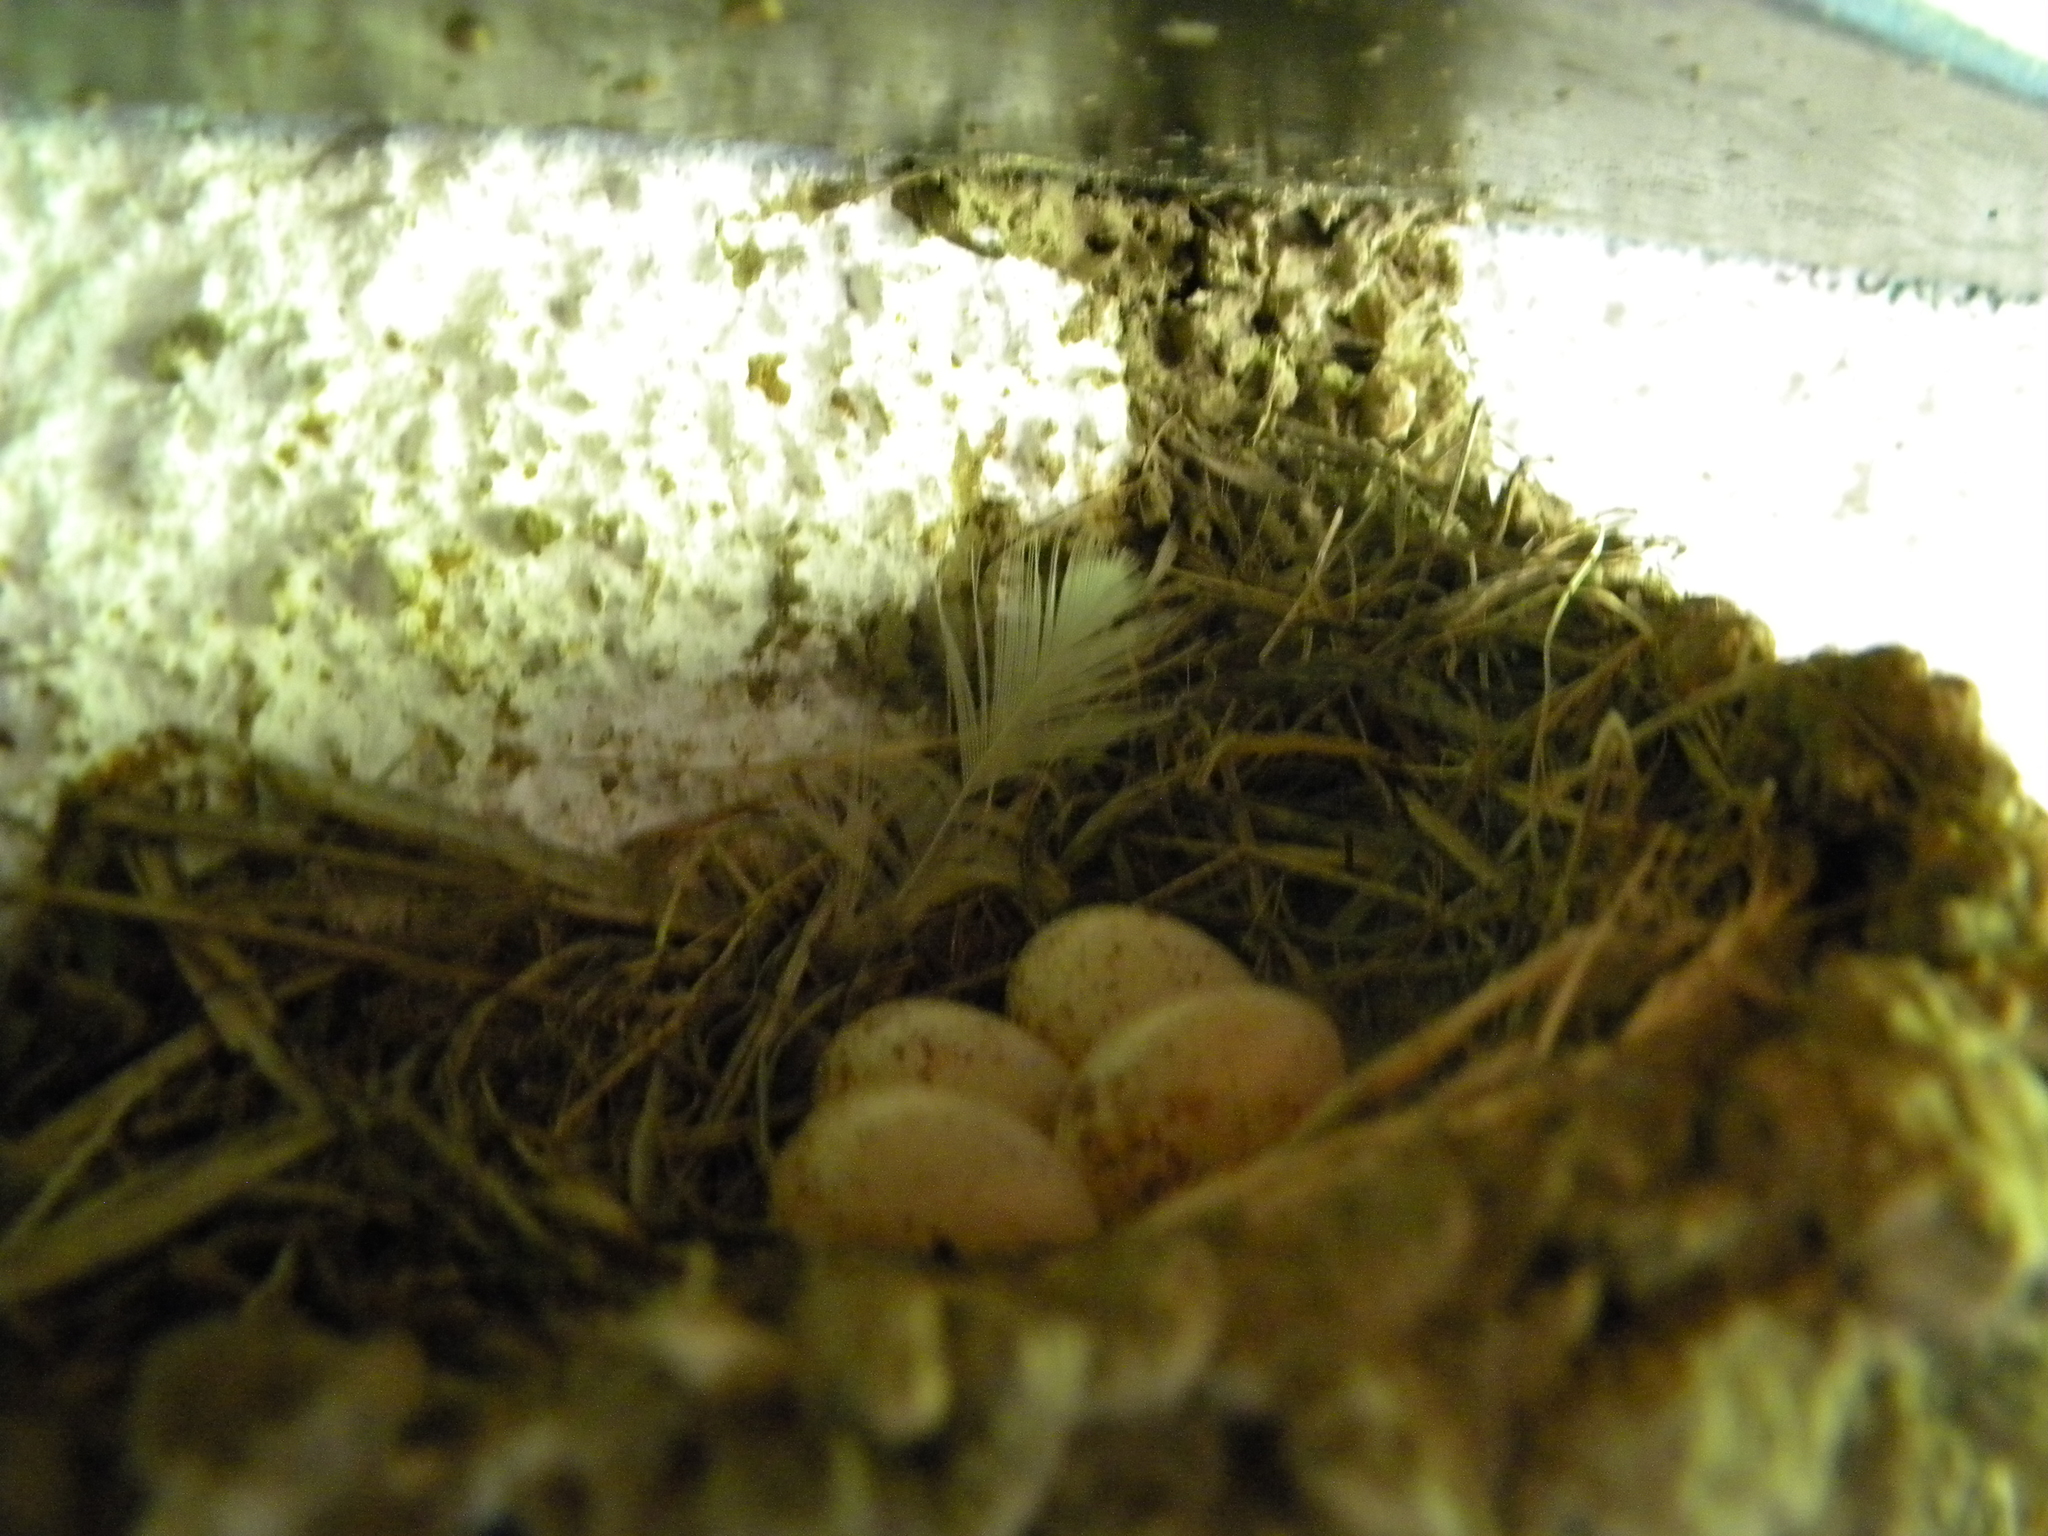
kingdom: Animalia
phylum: Chordata
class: Aves
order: Passeriformes
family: Hirundinidae
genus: Hirundo
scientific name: Hirundo rustica
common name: Barn swallow
